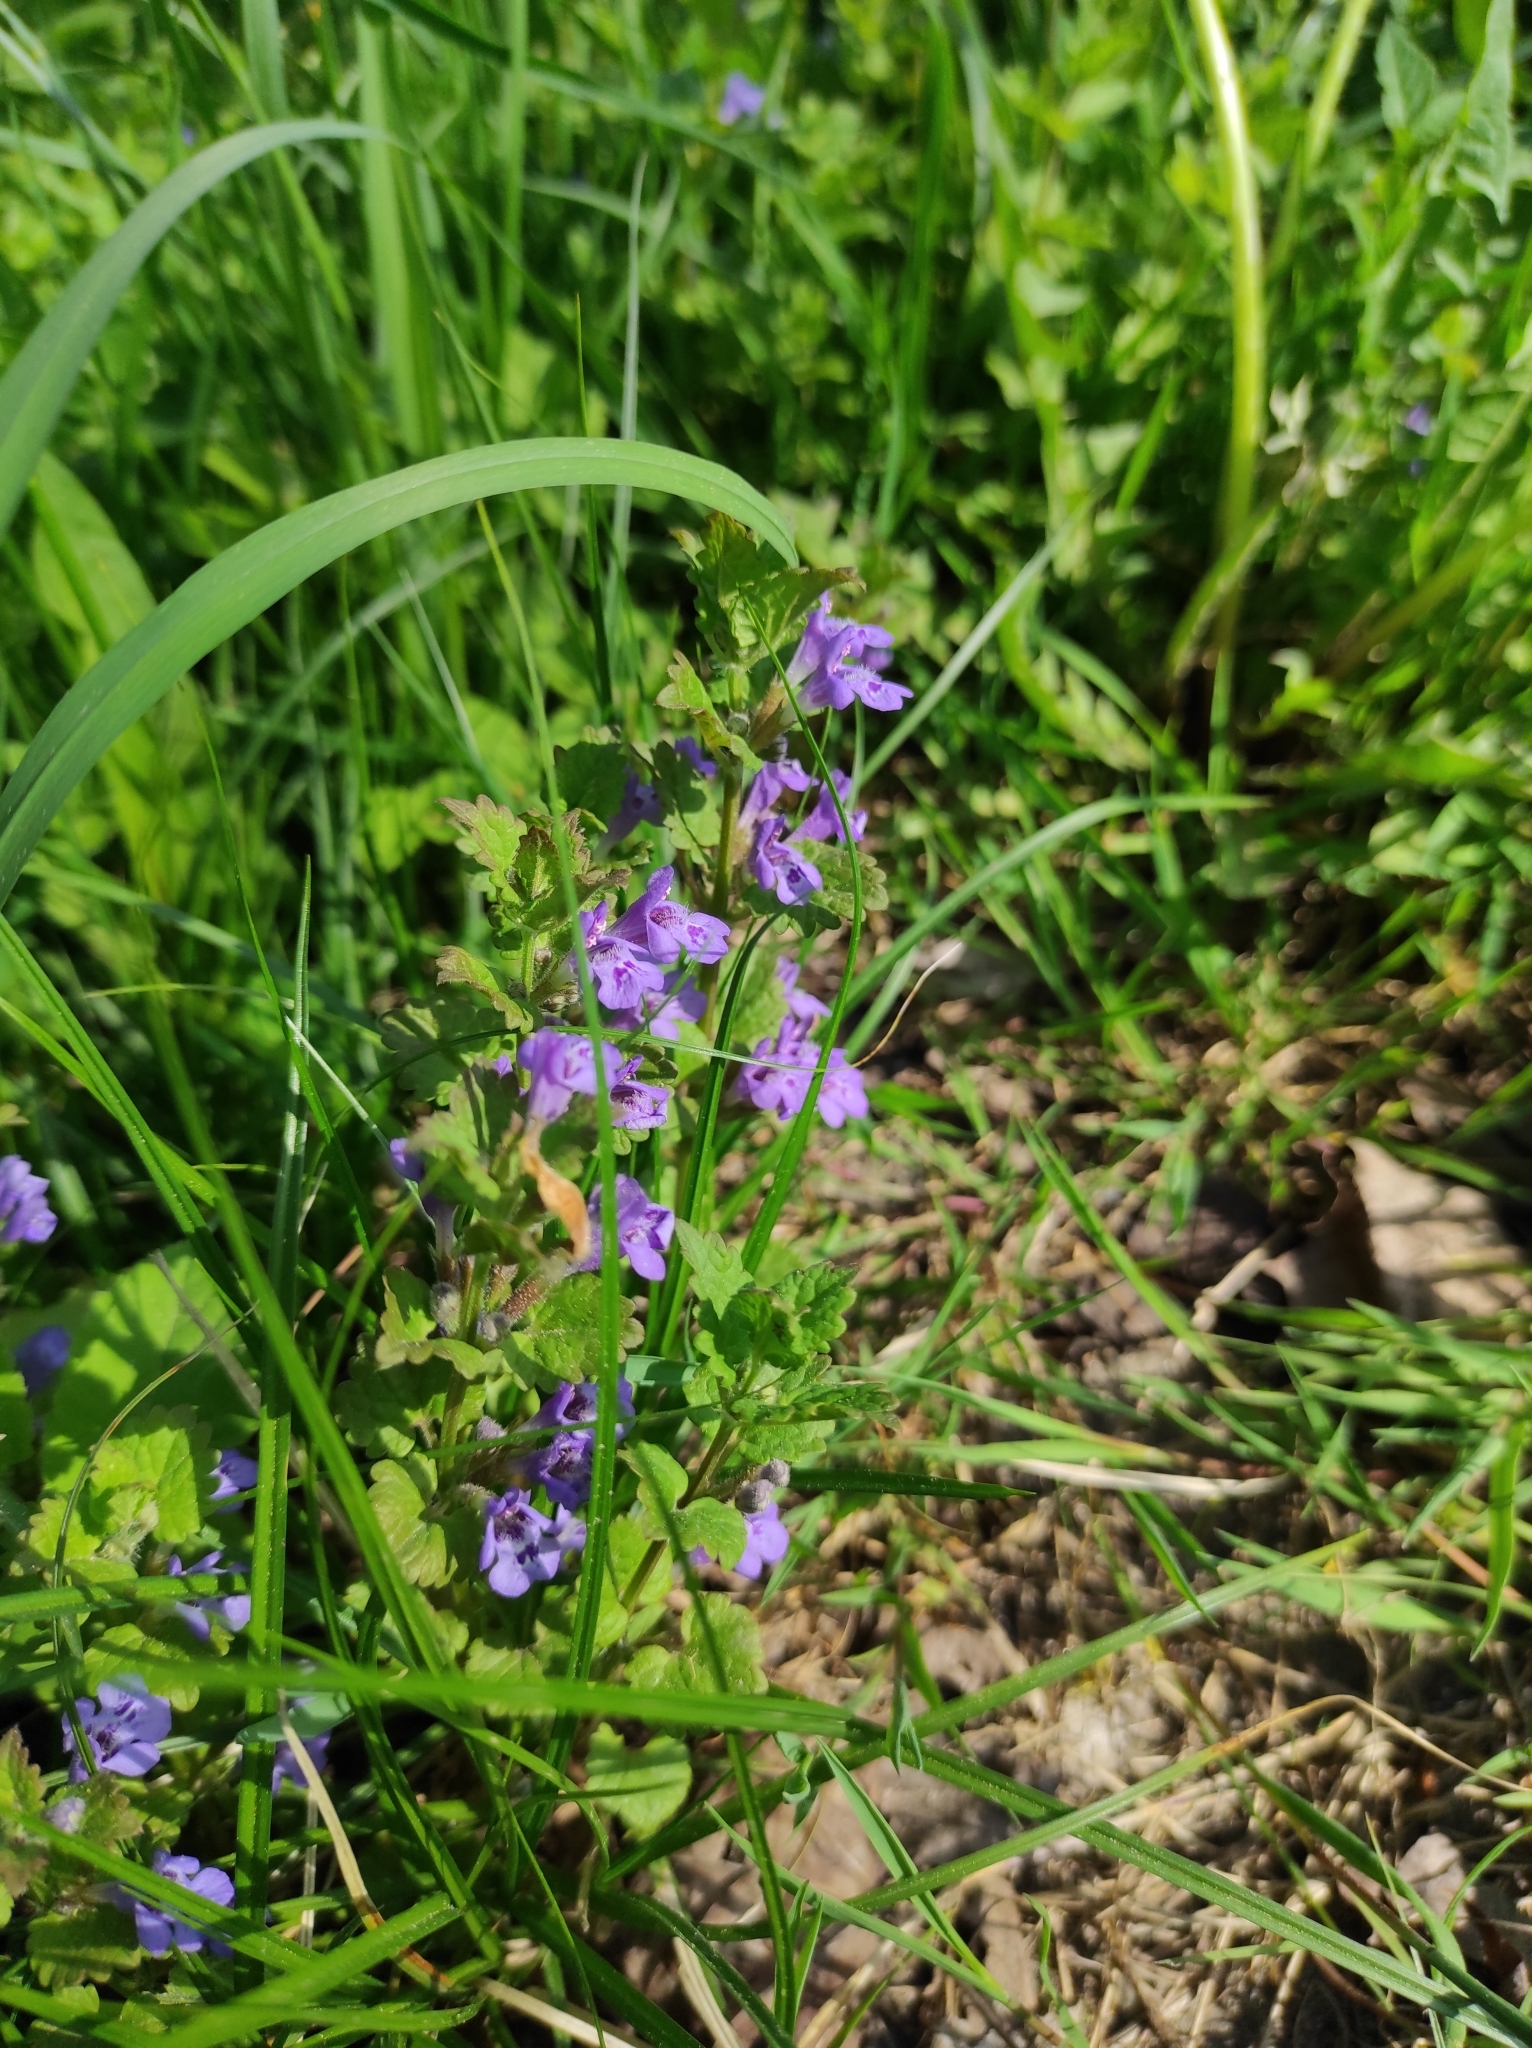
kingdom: Plantae
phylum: Tracheophyta
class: Magnoliopsida
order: Lamiales
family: Lamiaceae
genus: Glechoma
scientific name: Glechoma hederacea
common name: Ground ivy
